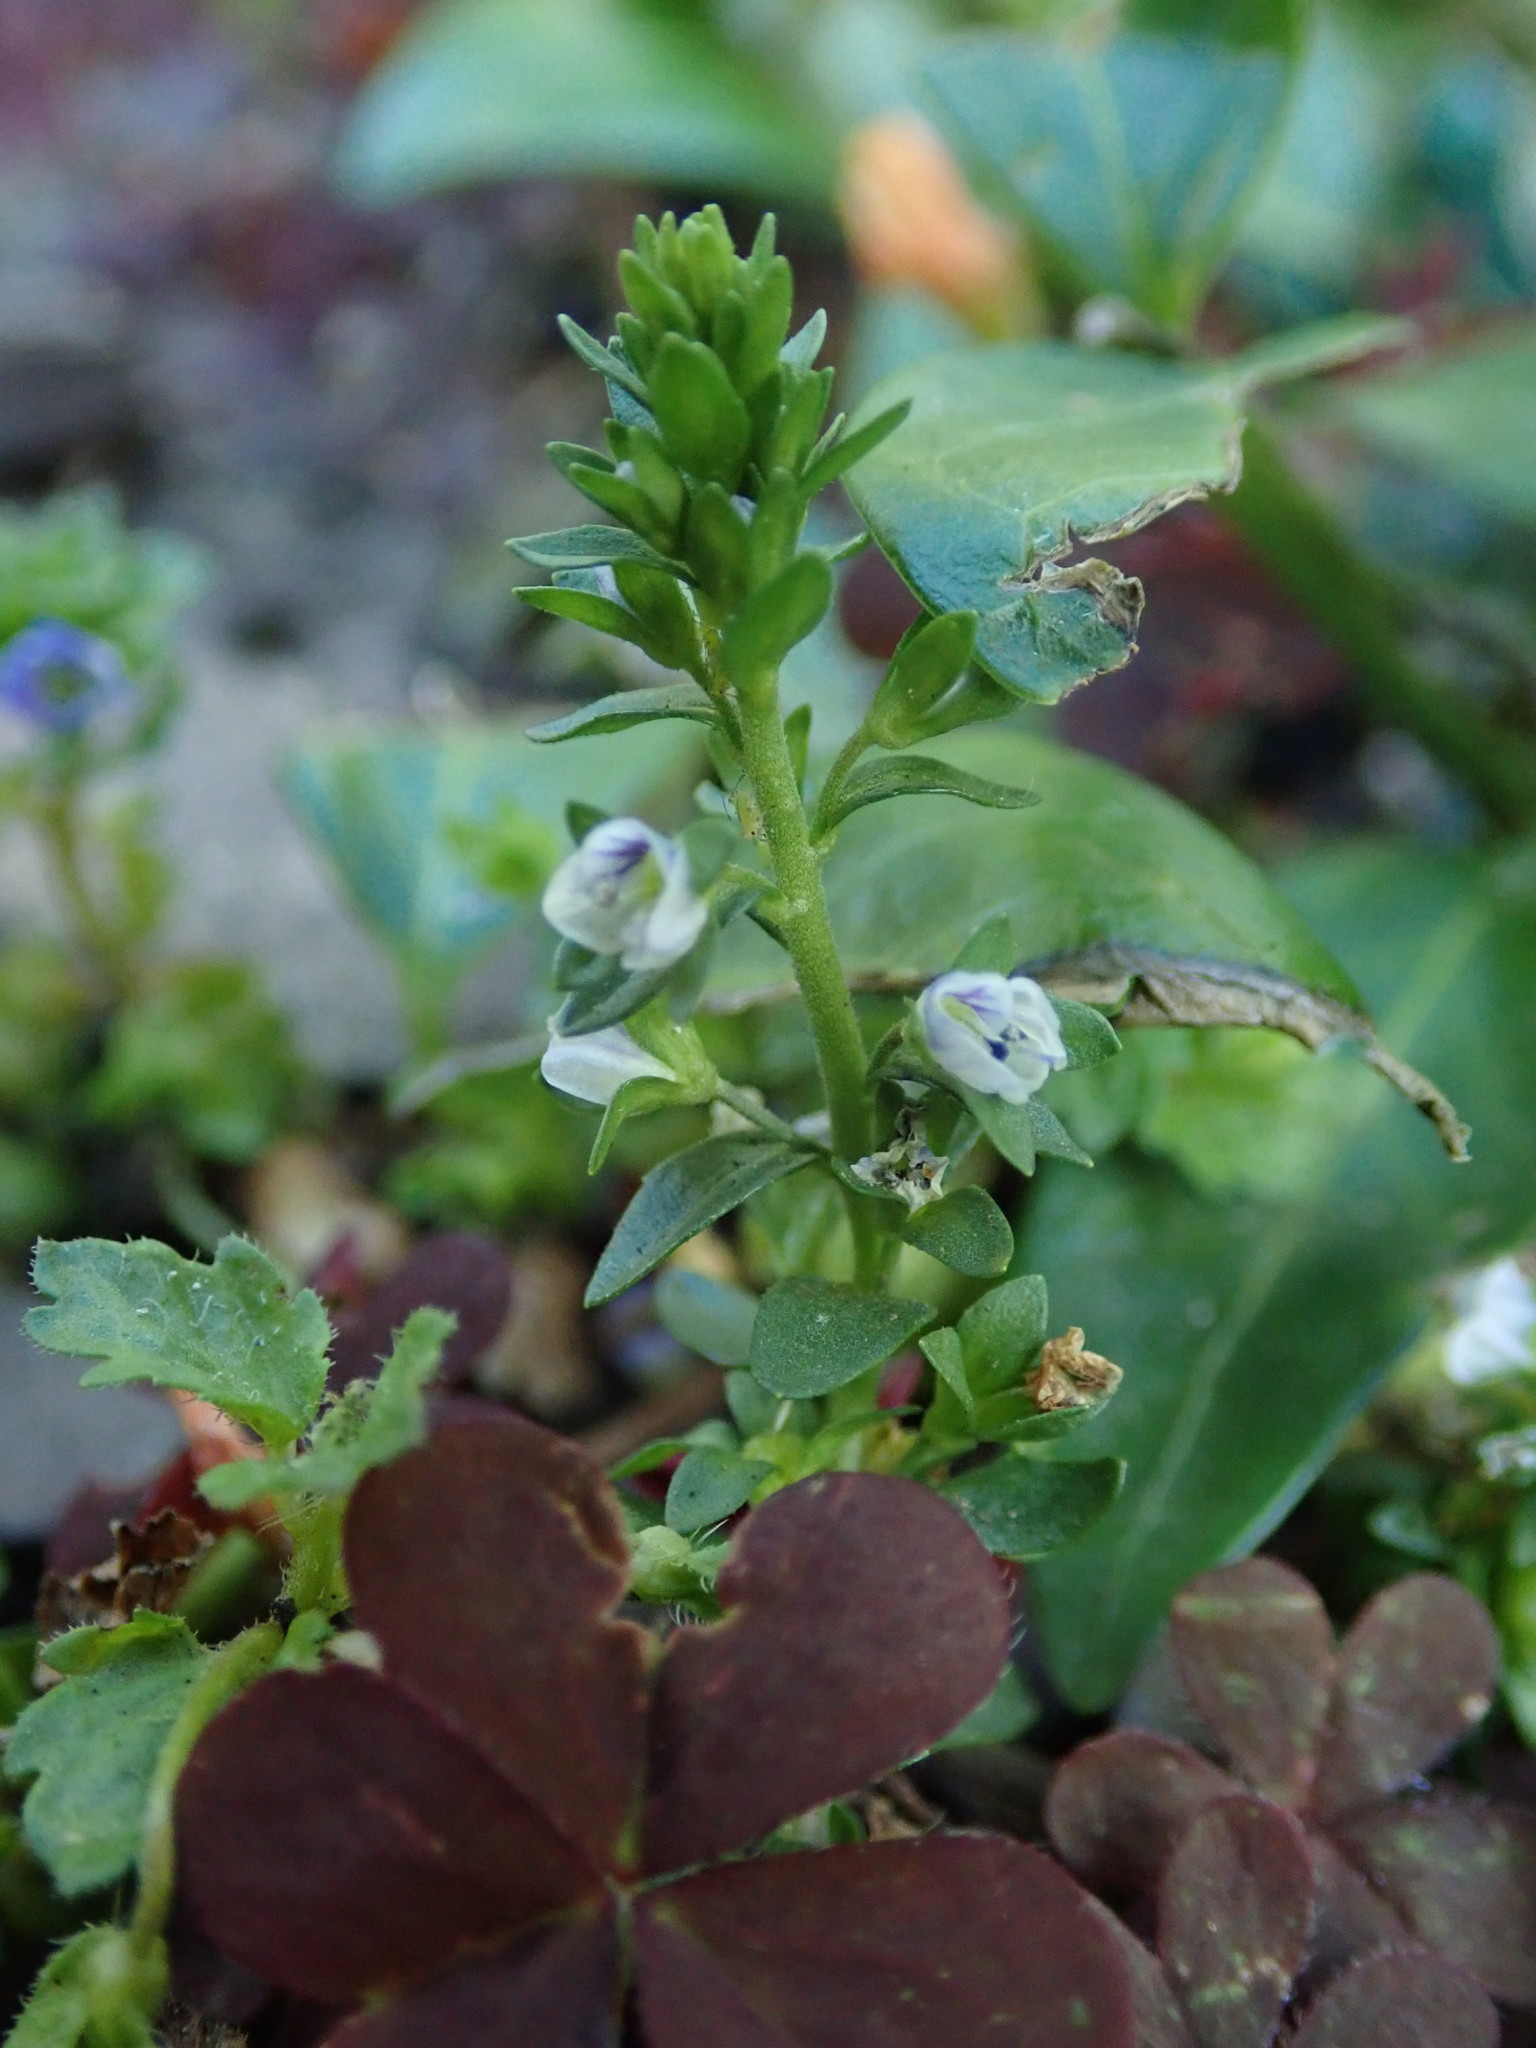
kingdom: Plantae
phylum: Tracheophyta
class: Magnoliopsida
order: Lamiales
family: Plantaginaceae
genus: Veronica
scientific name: Veronica serpyllifolia
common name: Thyme-leaved speedwell
